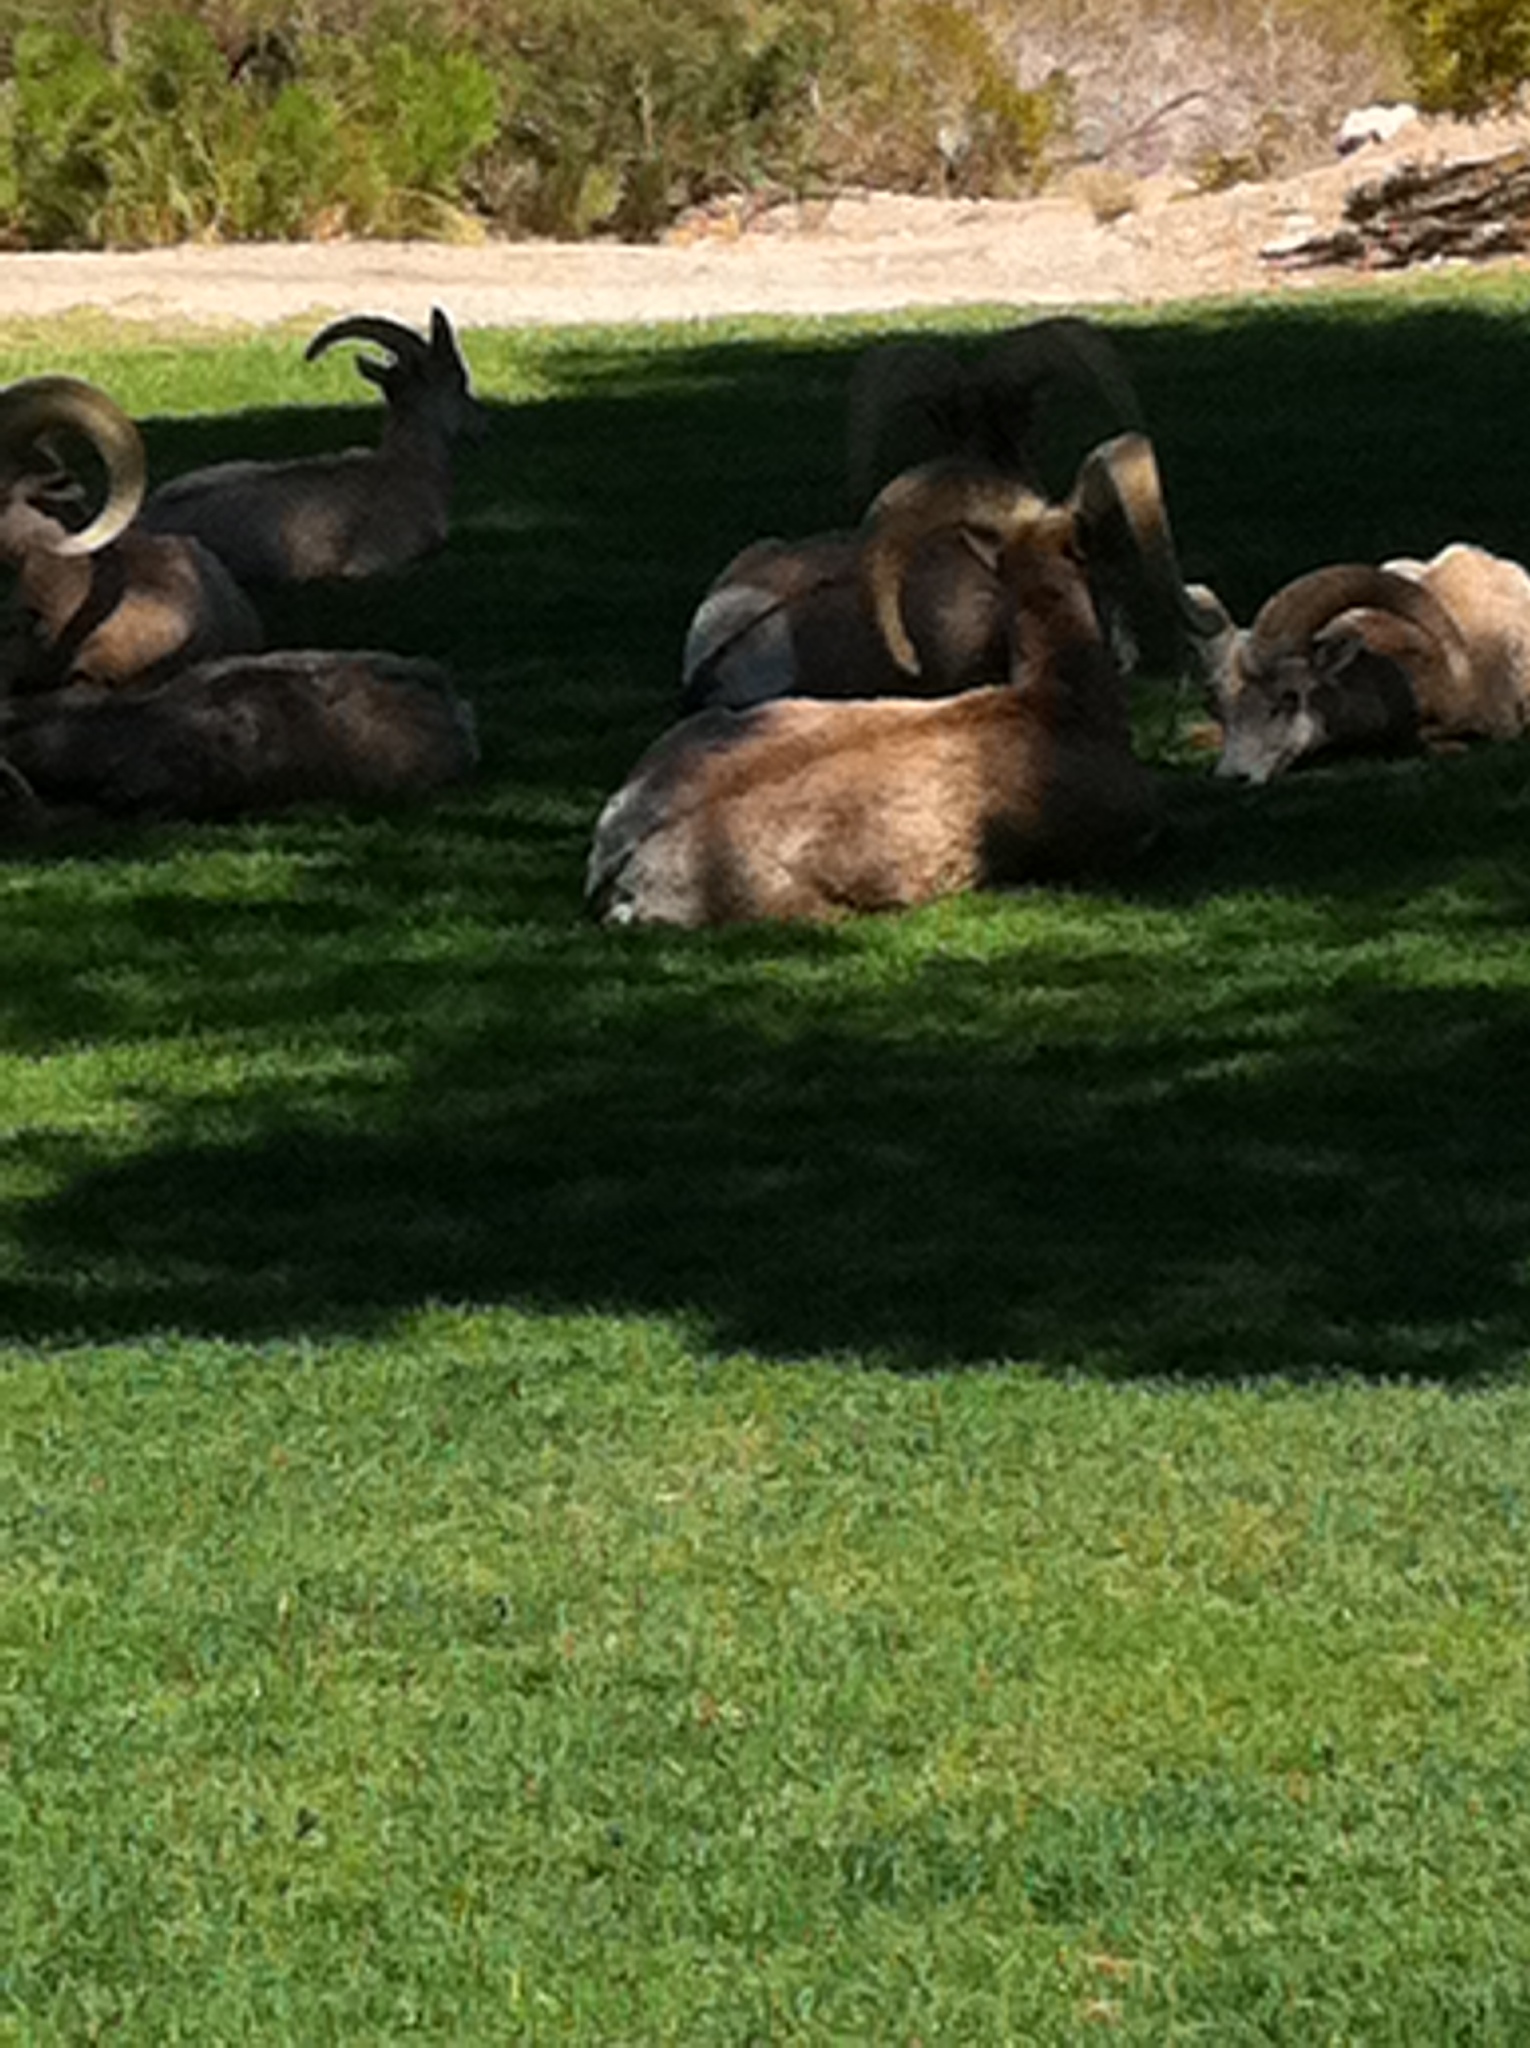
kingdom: Animalia
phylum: Chordata
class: Mammalia
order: Artiodactyla
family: Bovidae
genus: Ovis
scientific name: Ovis canadensis
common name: Bighorn sheep
